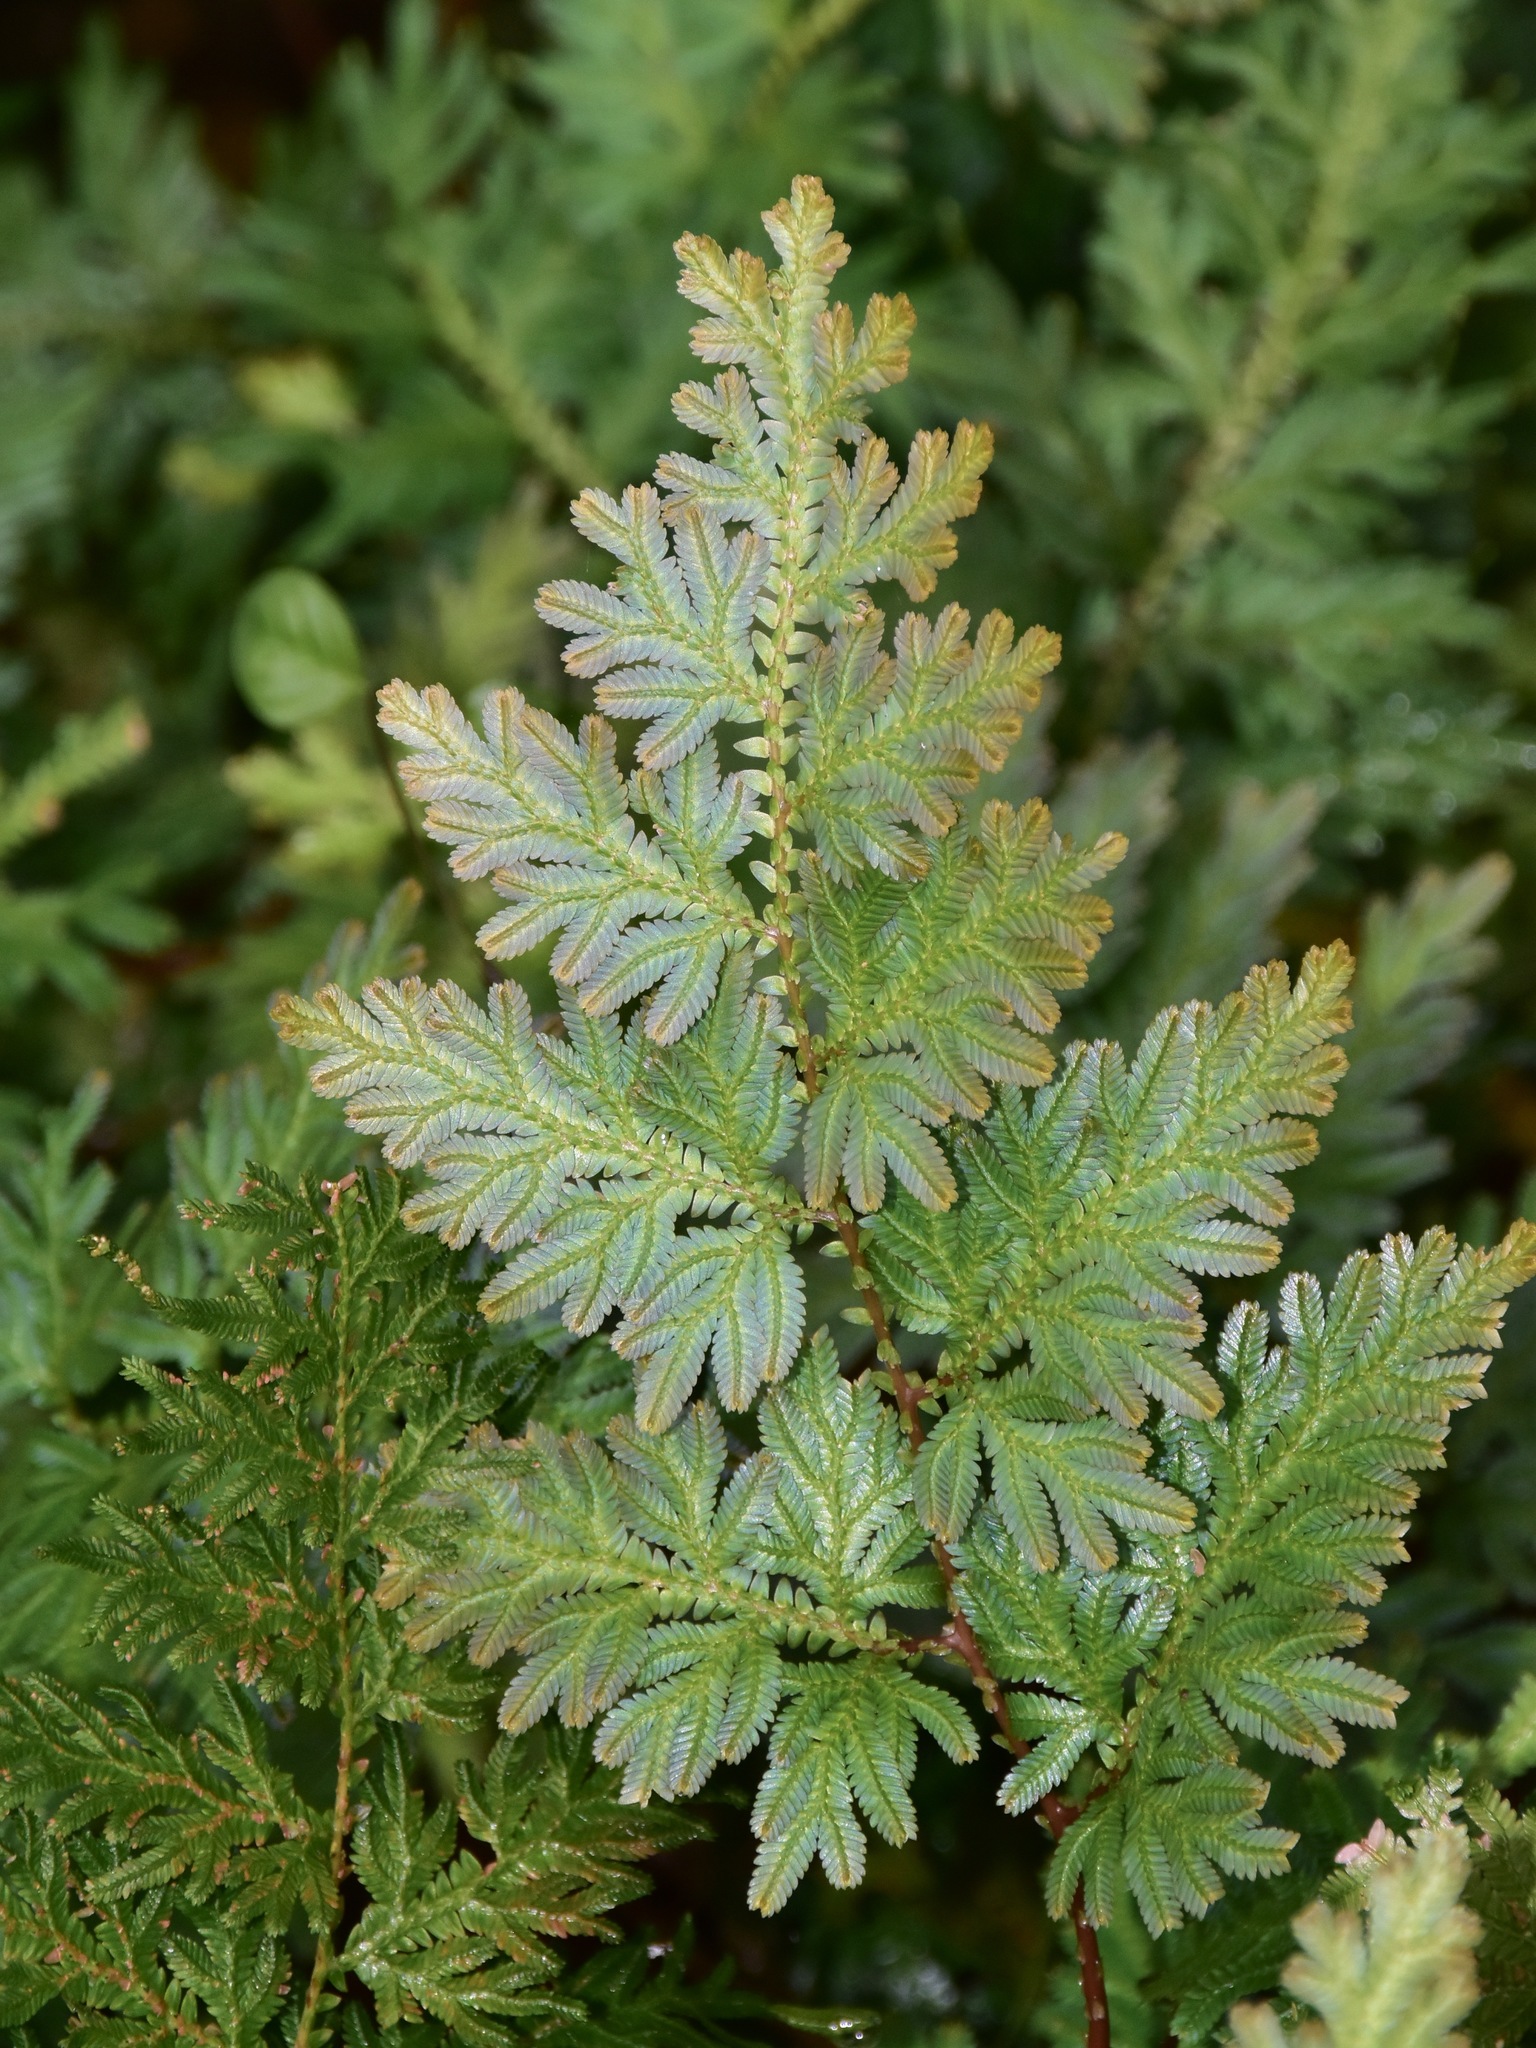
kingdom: Plantae
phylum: Tracheophyta
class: Lycopodiopsida
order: Selaginellales
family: Selaginellaceae
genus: Selaginella
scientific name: Selaginella willdenowii
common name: Willdenow's spikemoss
